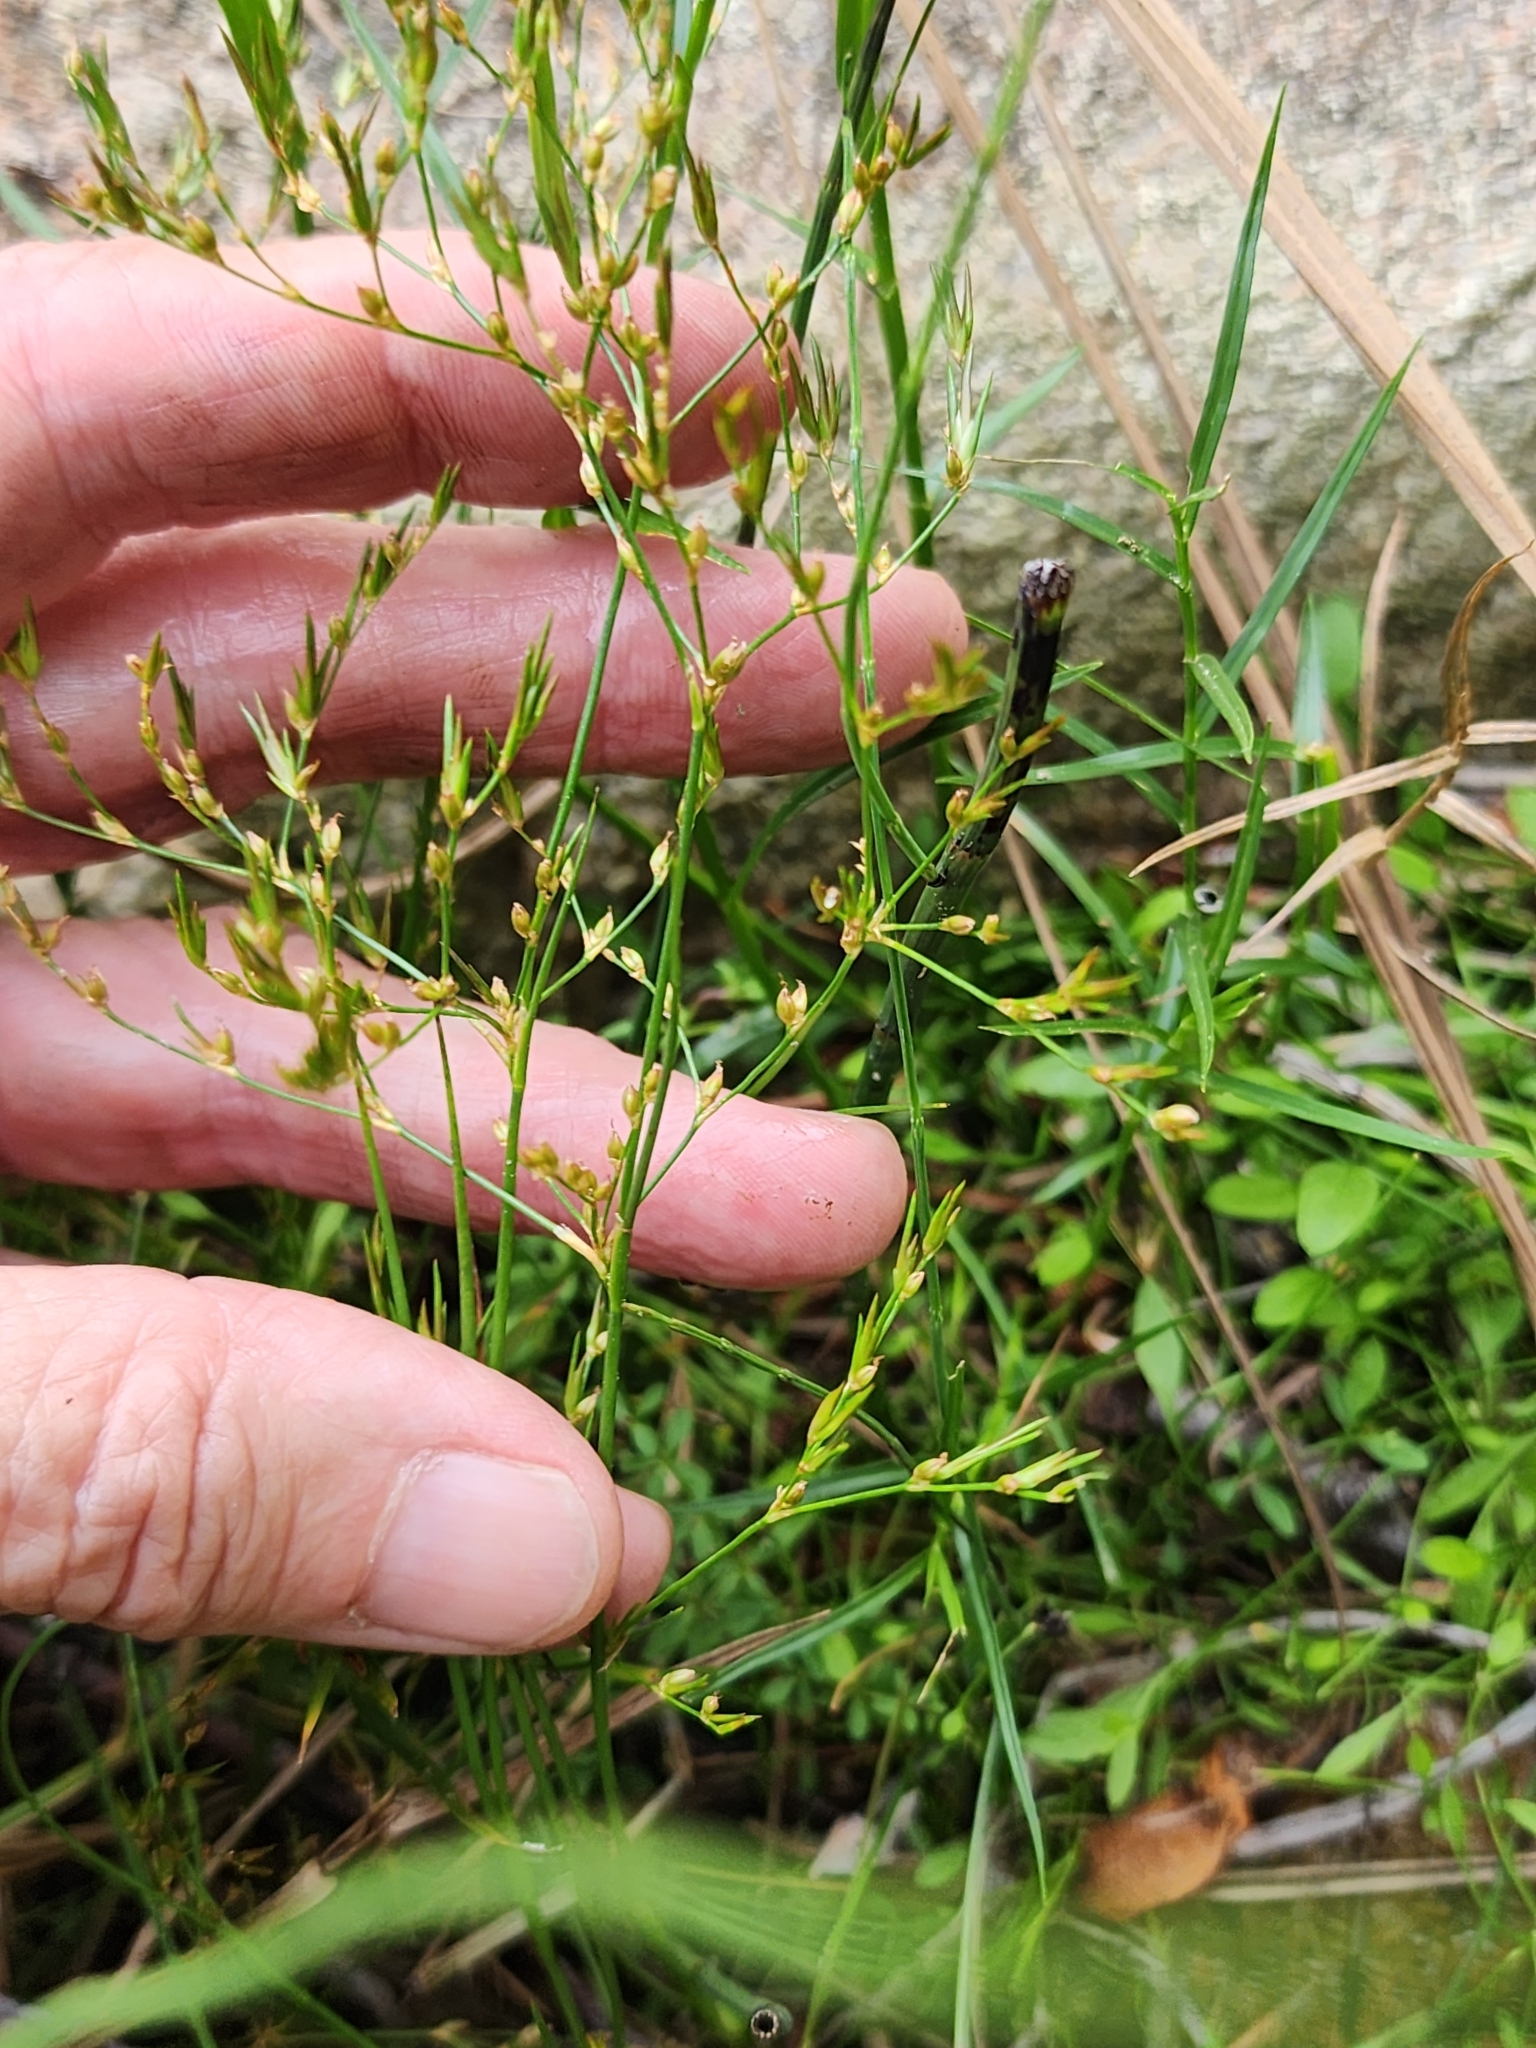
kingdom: Plantae
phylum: Tracheophyta
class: Liliopsida
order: Poales
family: Juncaceae
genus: Juncus
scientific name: Juncus pelocarpus
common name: Brown-fruited rush
